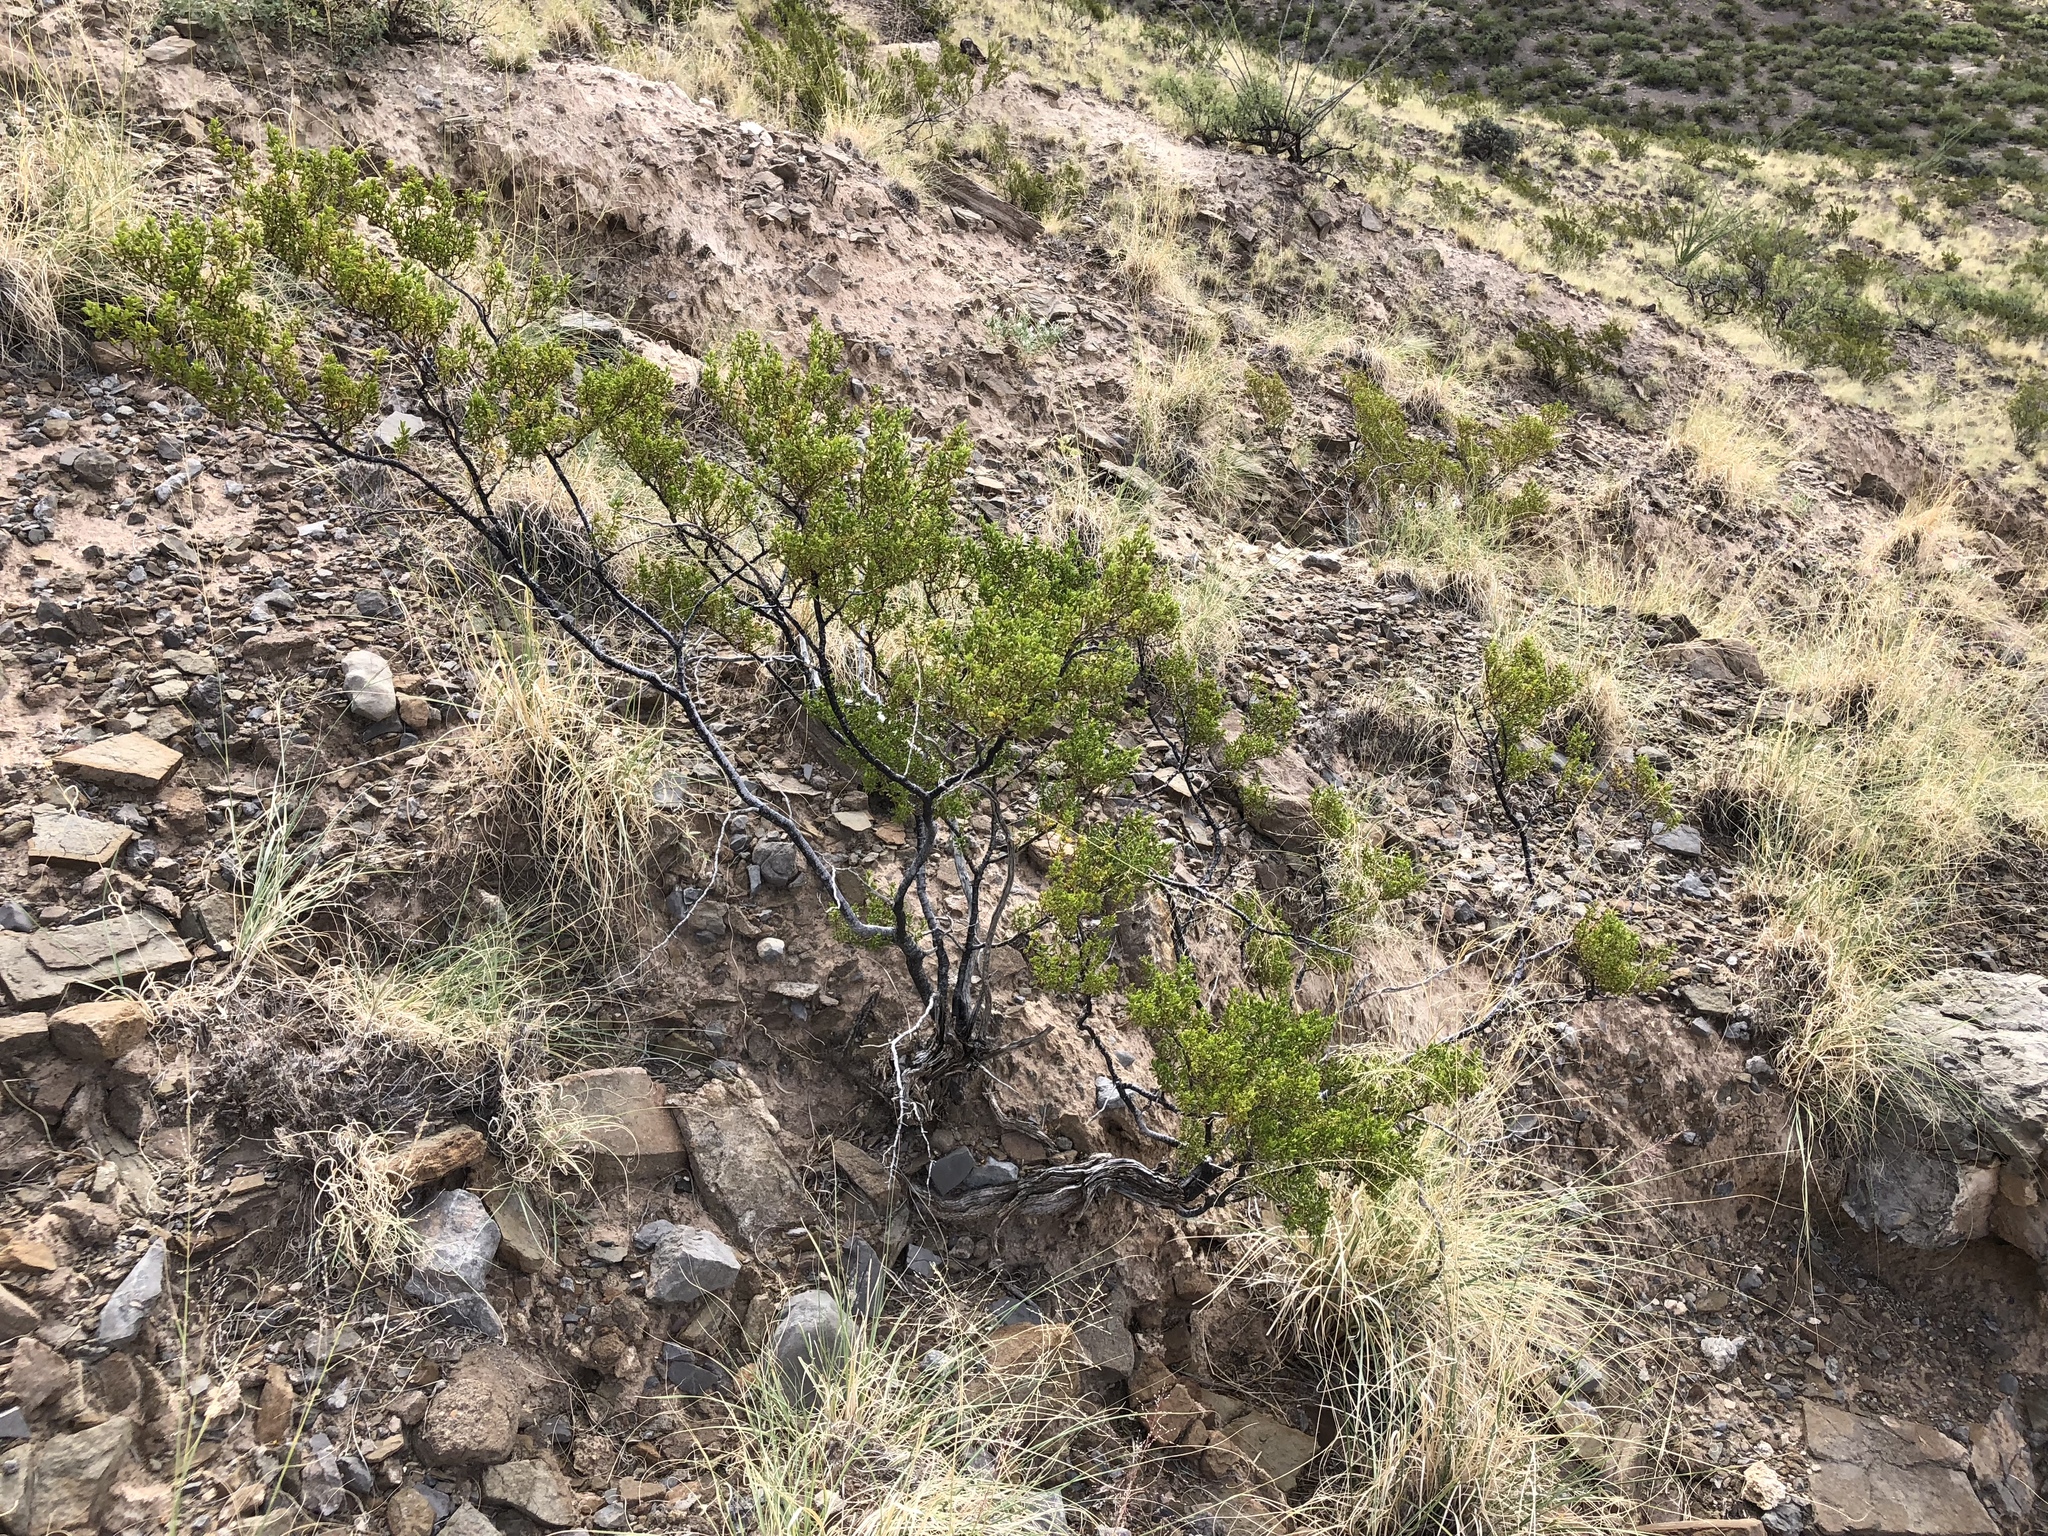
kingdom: Plantae
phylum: Tracheophyta
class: Magnoliopsida
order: Zygophyllales
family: Zygophyllaceae
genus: Larrea
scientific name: Larrea tridentata
